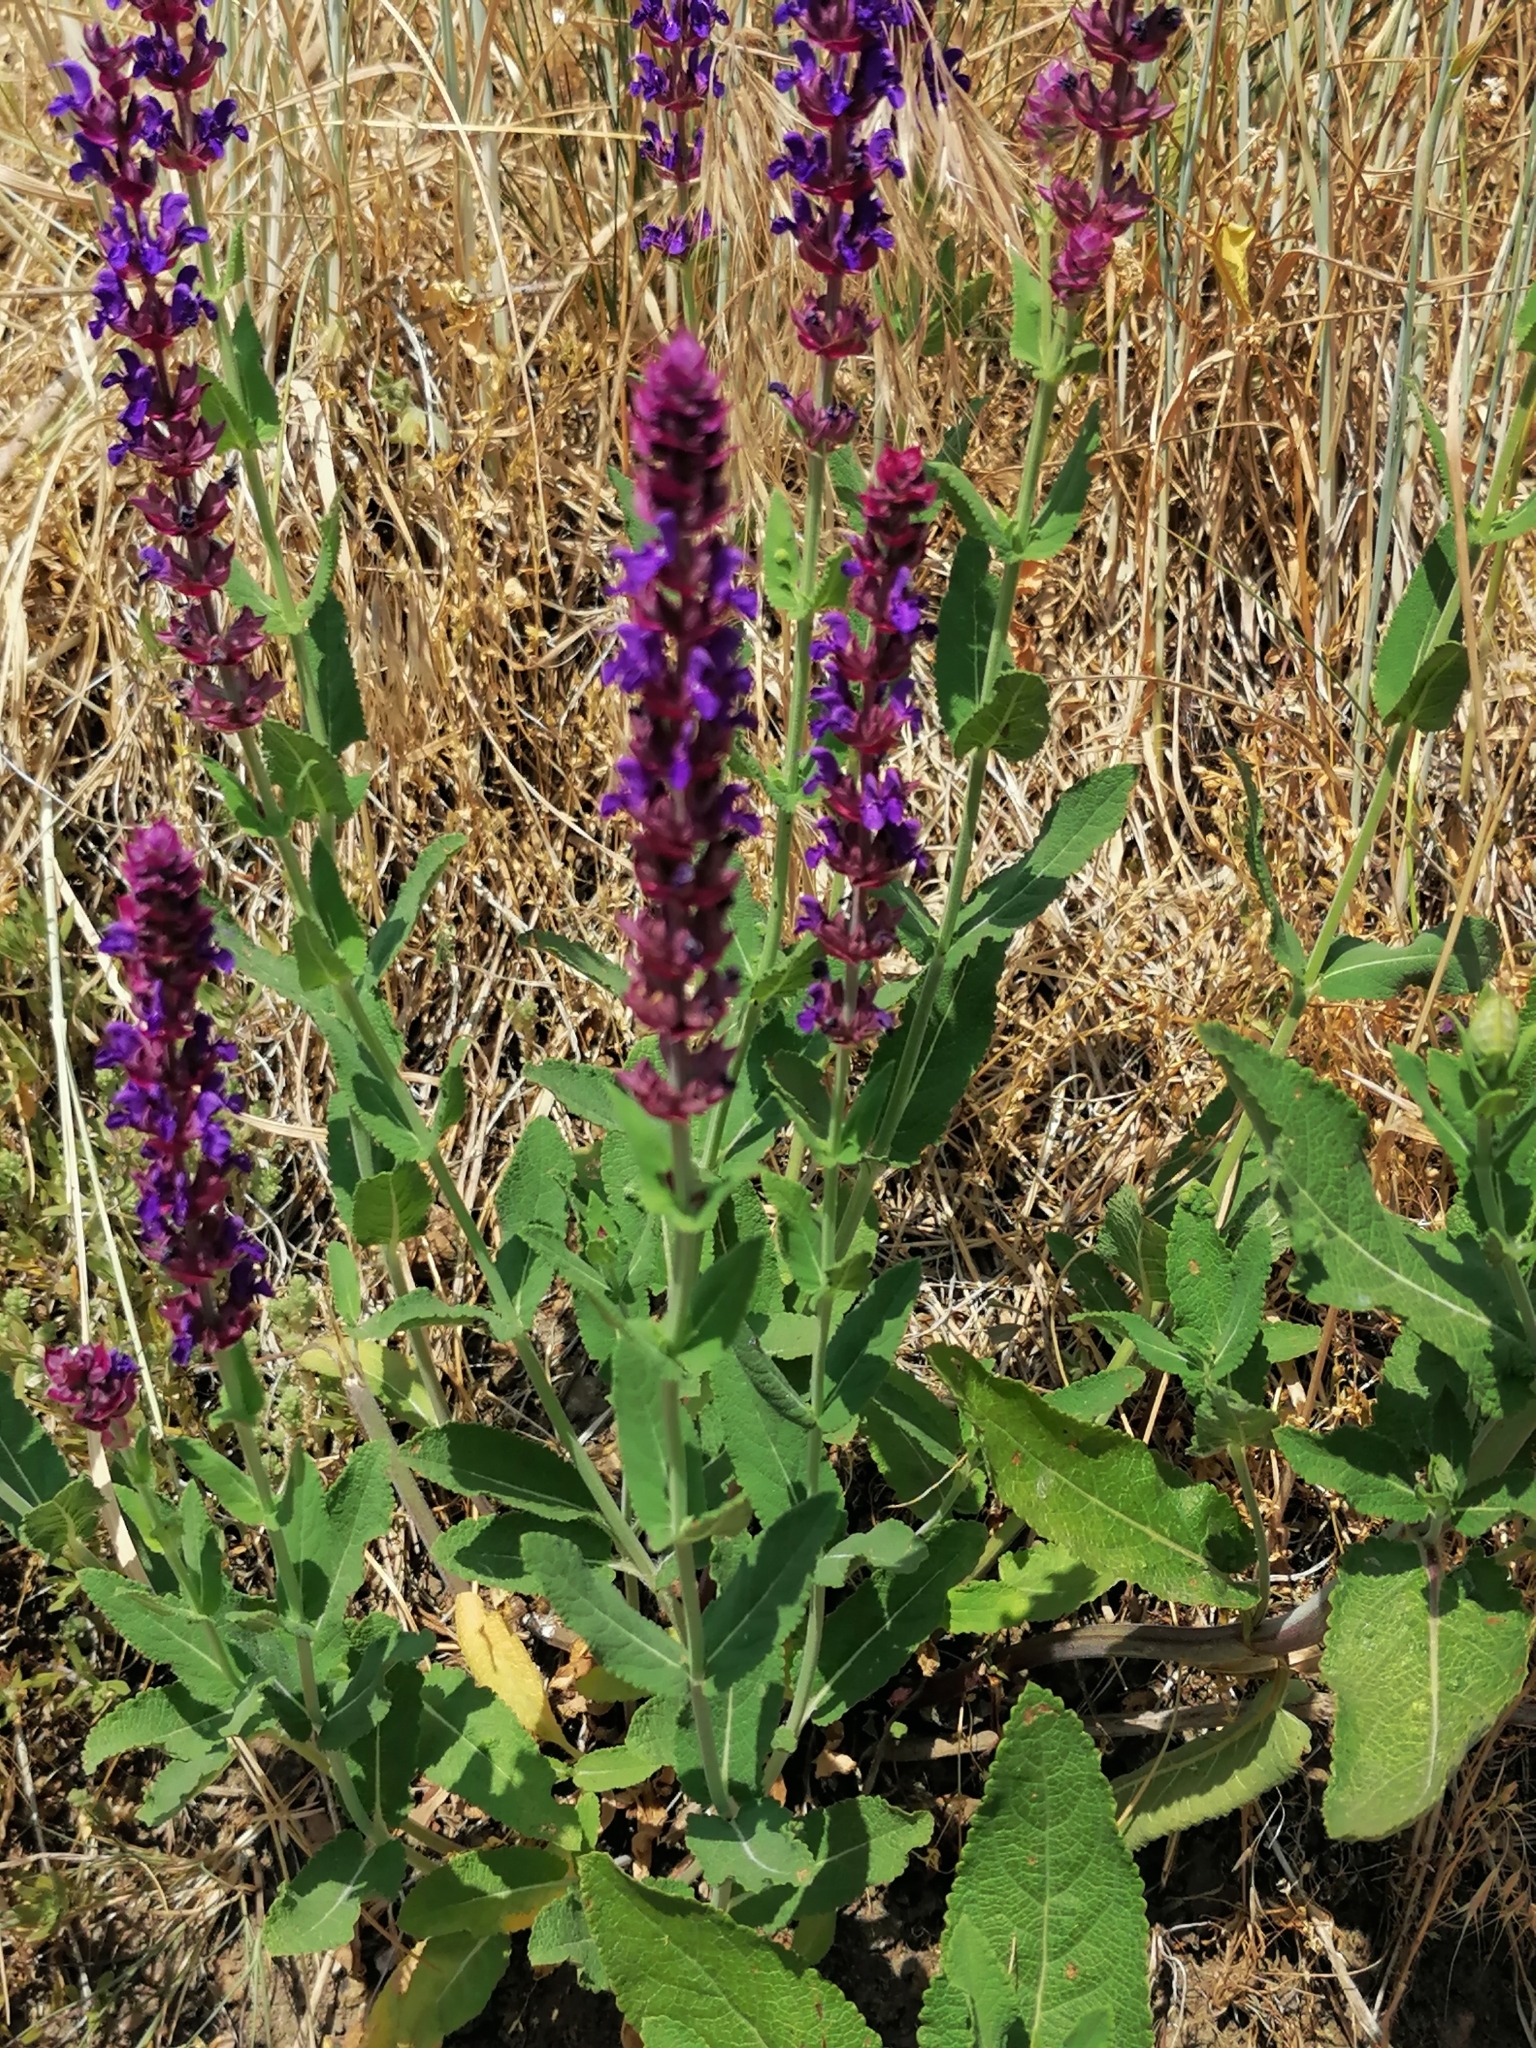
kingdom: Plantae
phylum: Tracheophyta
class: Magnoliopsida
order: Lamiales
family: Lamiaceae
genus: Salvia
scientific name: Salvia nemorosa
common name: Balkan clary
